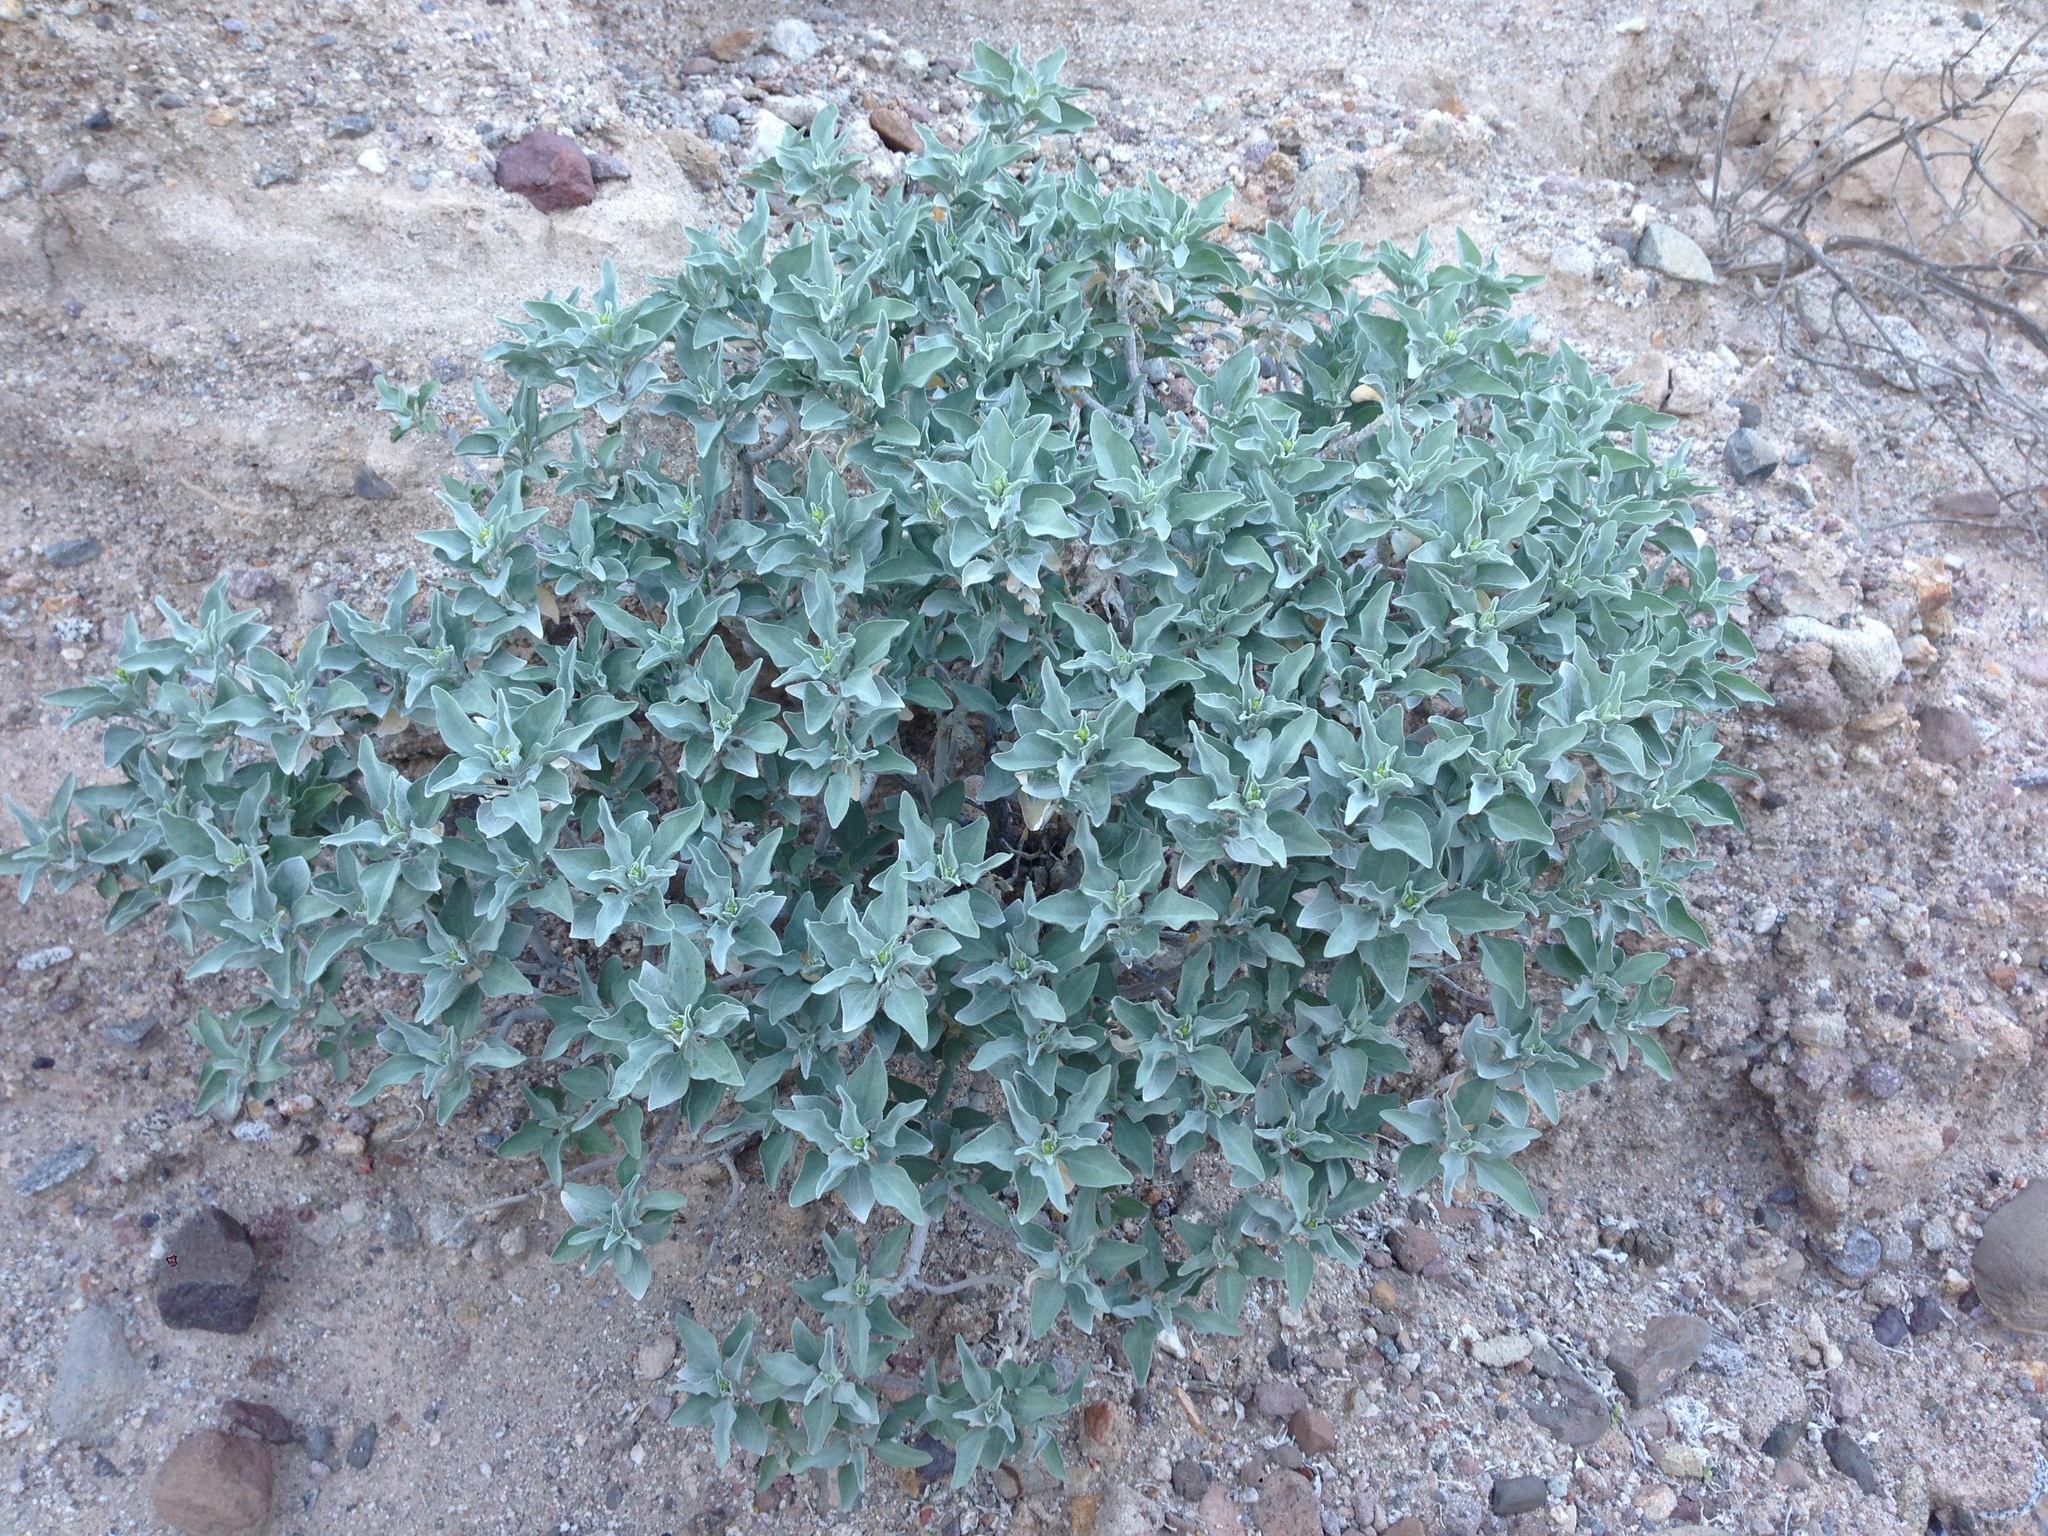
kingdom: Plantae
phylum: Tracheophyta
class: Magnoliopsida
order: Asterales
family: Asteraceae
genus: Encelia
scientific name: Encelia farinosa
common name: Brittlebush
